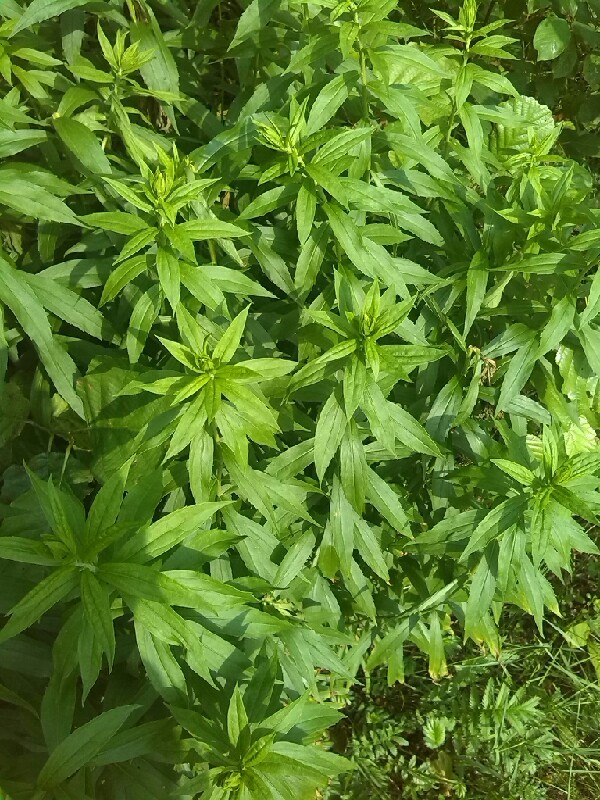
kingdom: Plantae
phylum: Tracheophyta
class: Magnoliopsida
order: Asterales
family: Asteraceae
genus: Solidago
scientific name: Solidago canadensis
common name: Canada goldenrod
